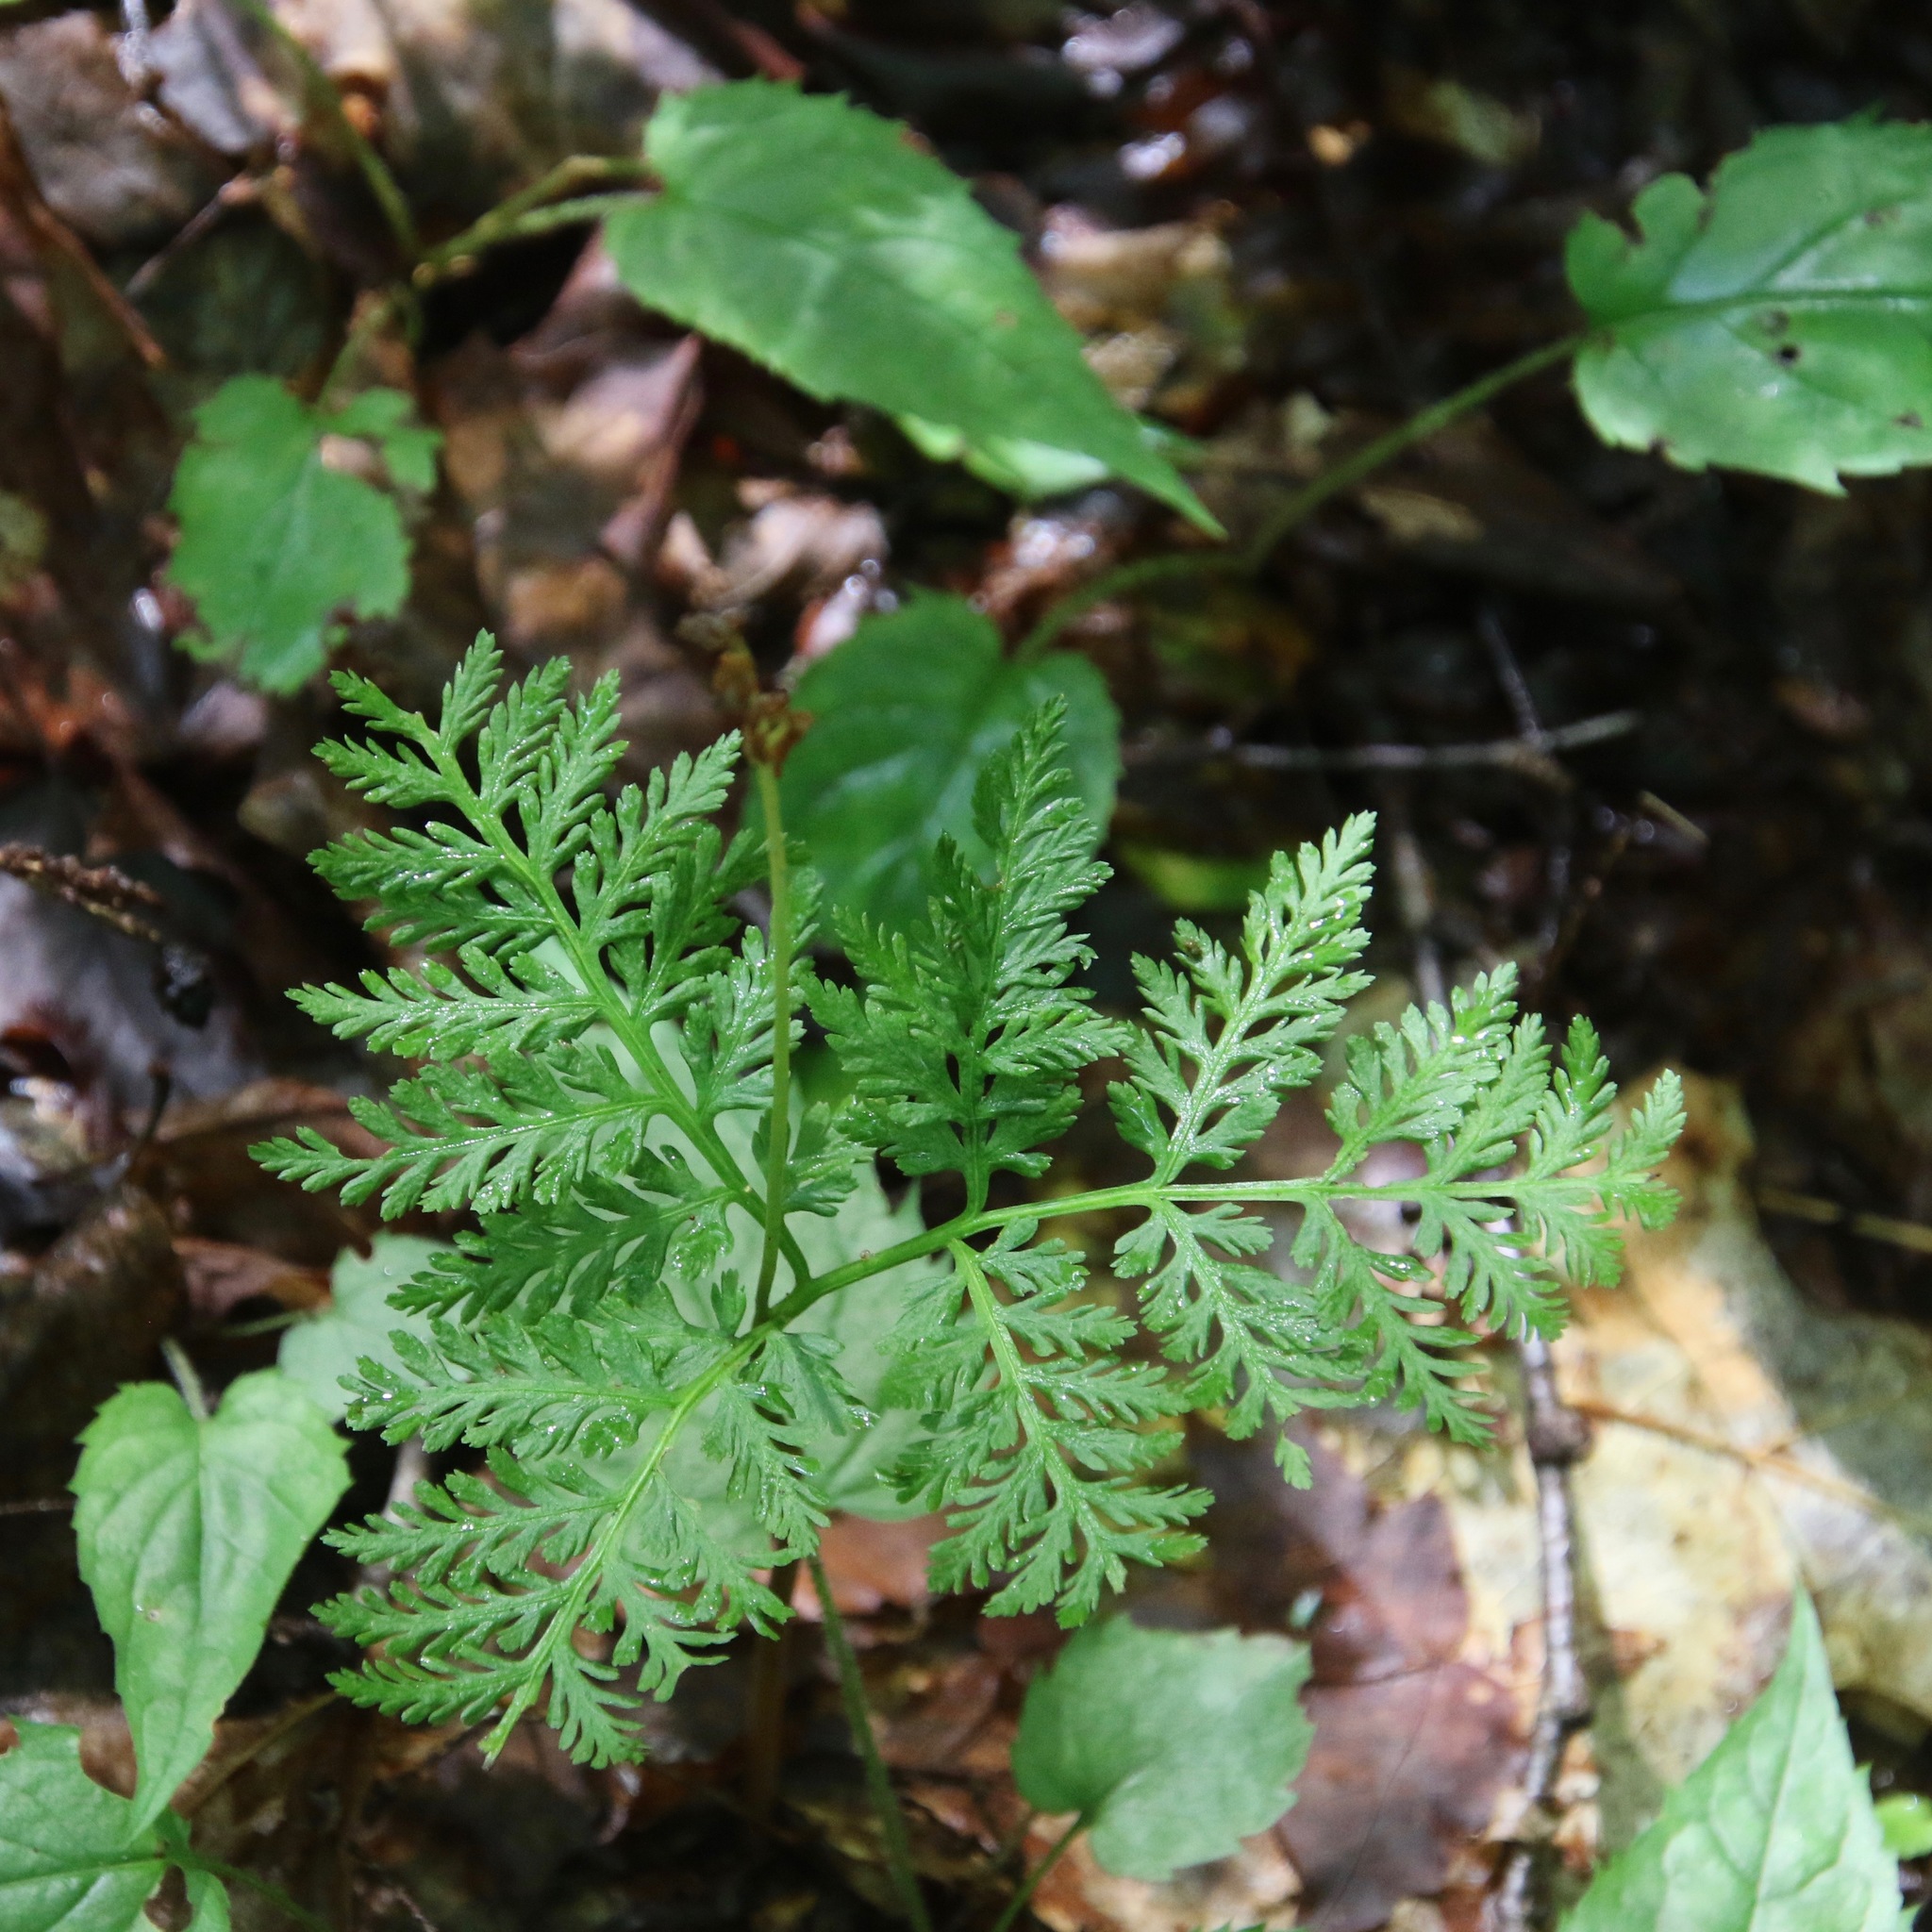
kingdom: Plantae
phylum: Tracheophyta
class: Polypodiopsida
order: Ophioglossales
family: Ophioglossaceae
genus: Botrypus
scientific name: Botrypus virginianus
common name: Common grapefern
